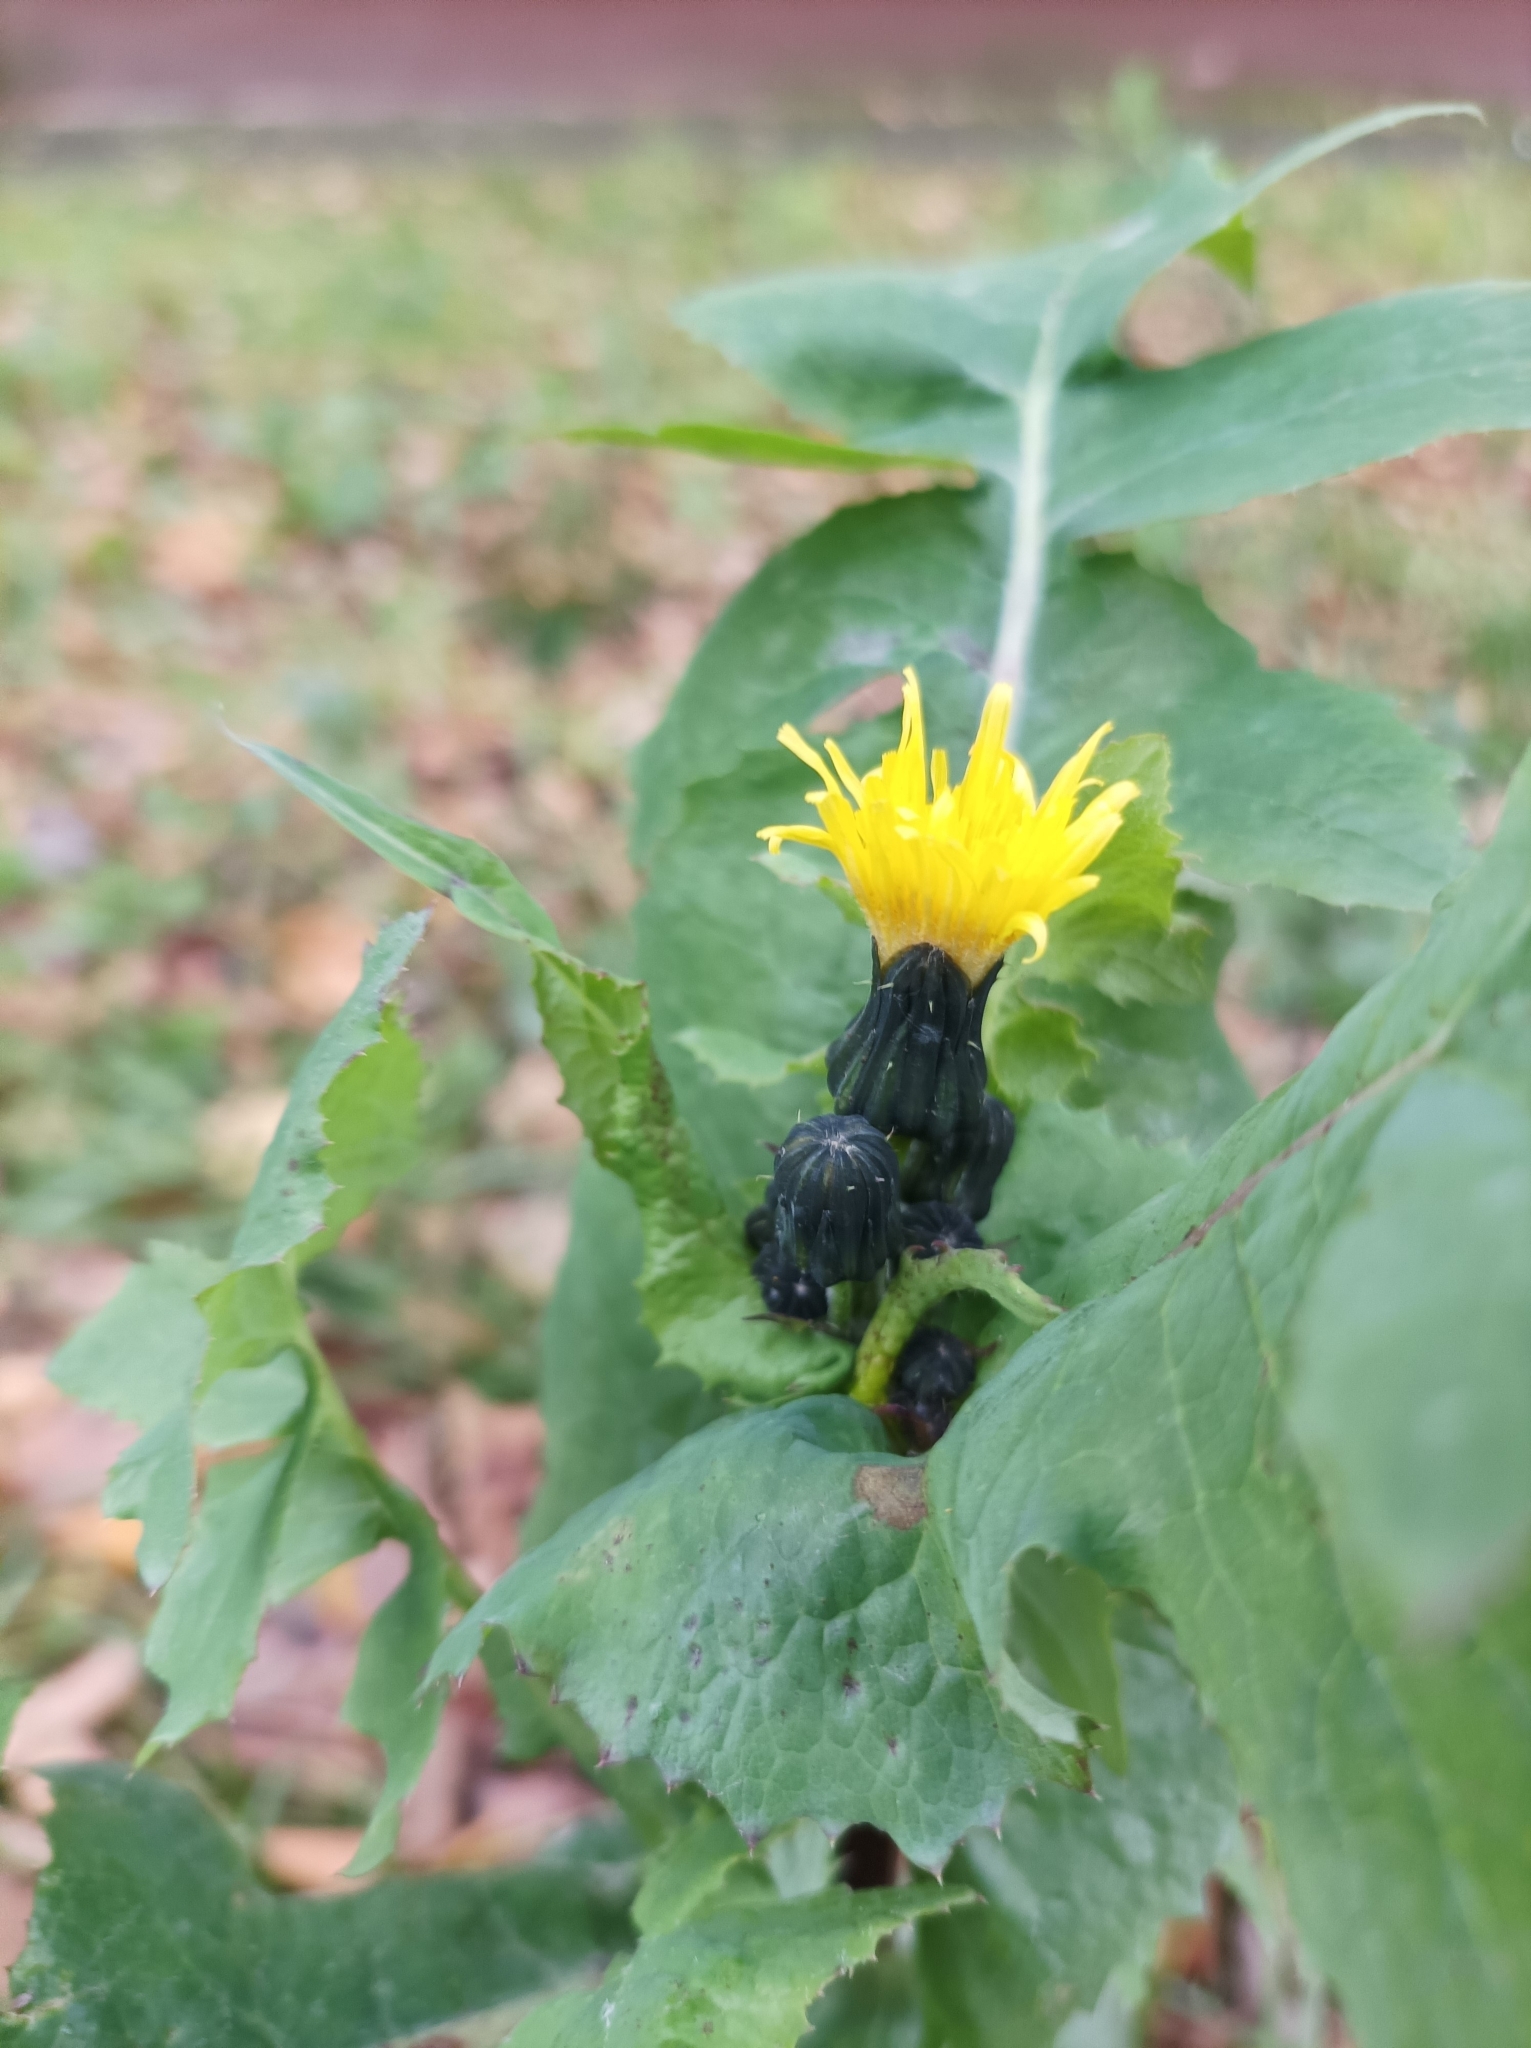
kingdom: Plantae
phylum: Tracheophyta
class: Magnoliopsida
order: Asterales
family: Asteraceae
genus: Sonchus
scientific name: Sonchus oleraceus
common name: Common sowthistle
